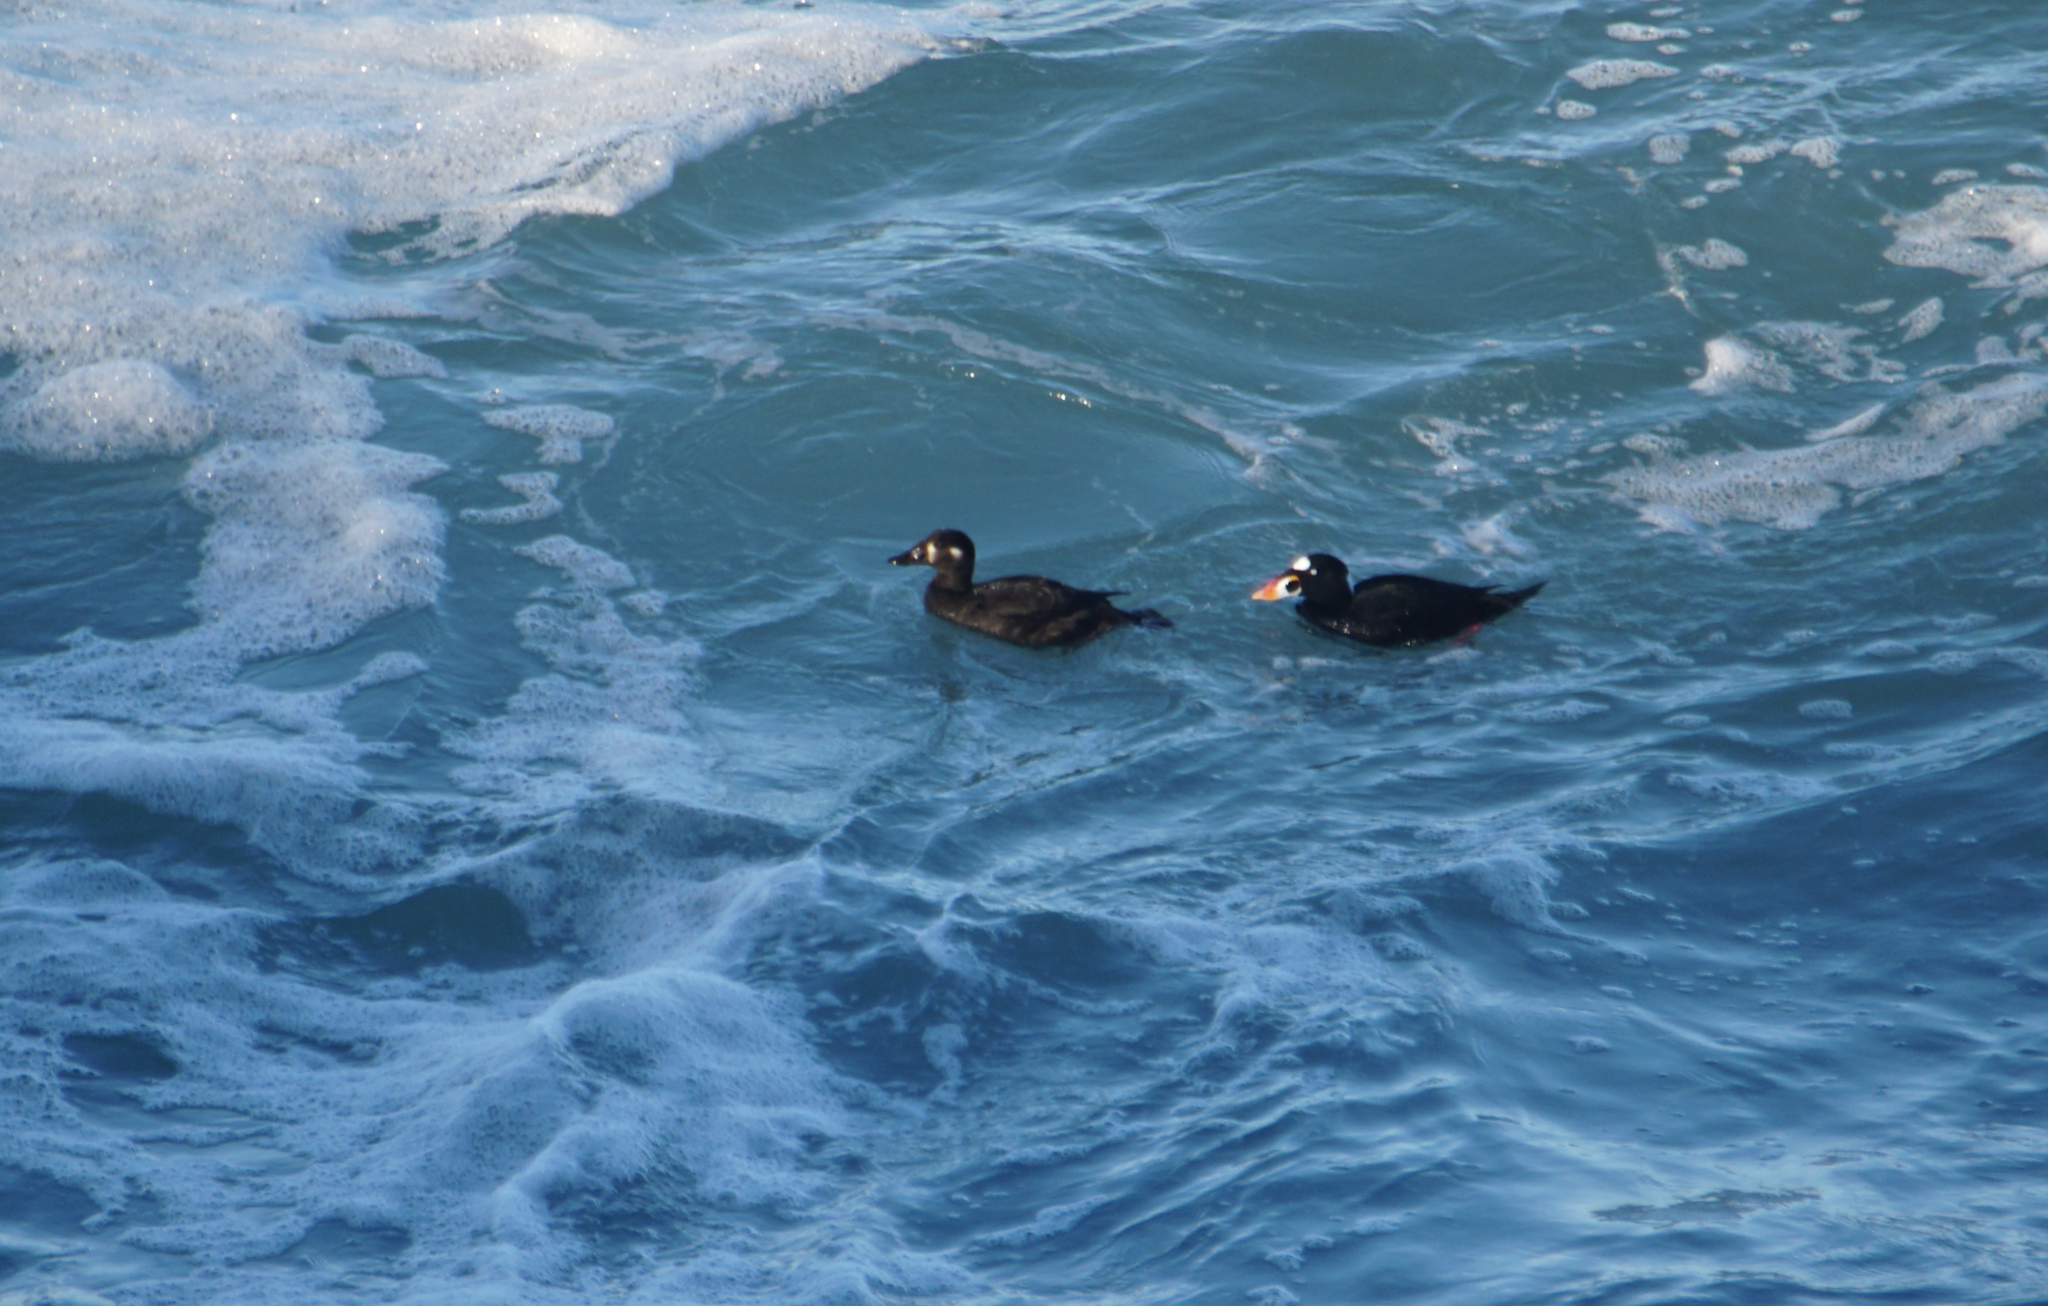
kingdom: Animalia
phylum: Chordata
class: Aves
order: Anseriformes
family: Anatidae
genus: Melanitta
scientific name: Melanitta perspicillata
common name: Surf scoter
